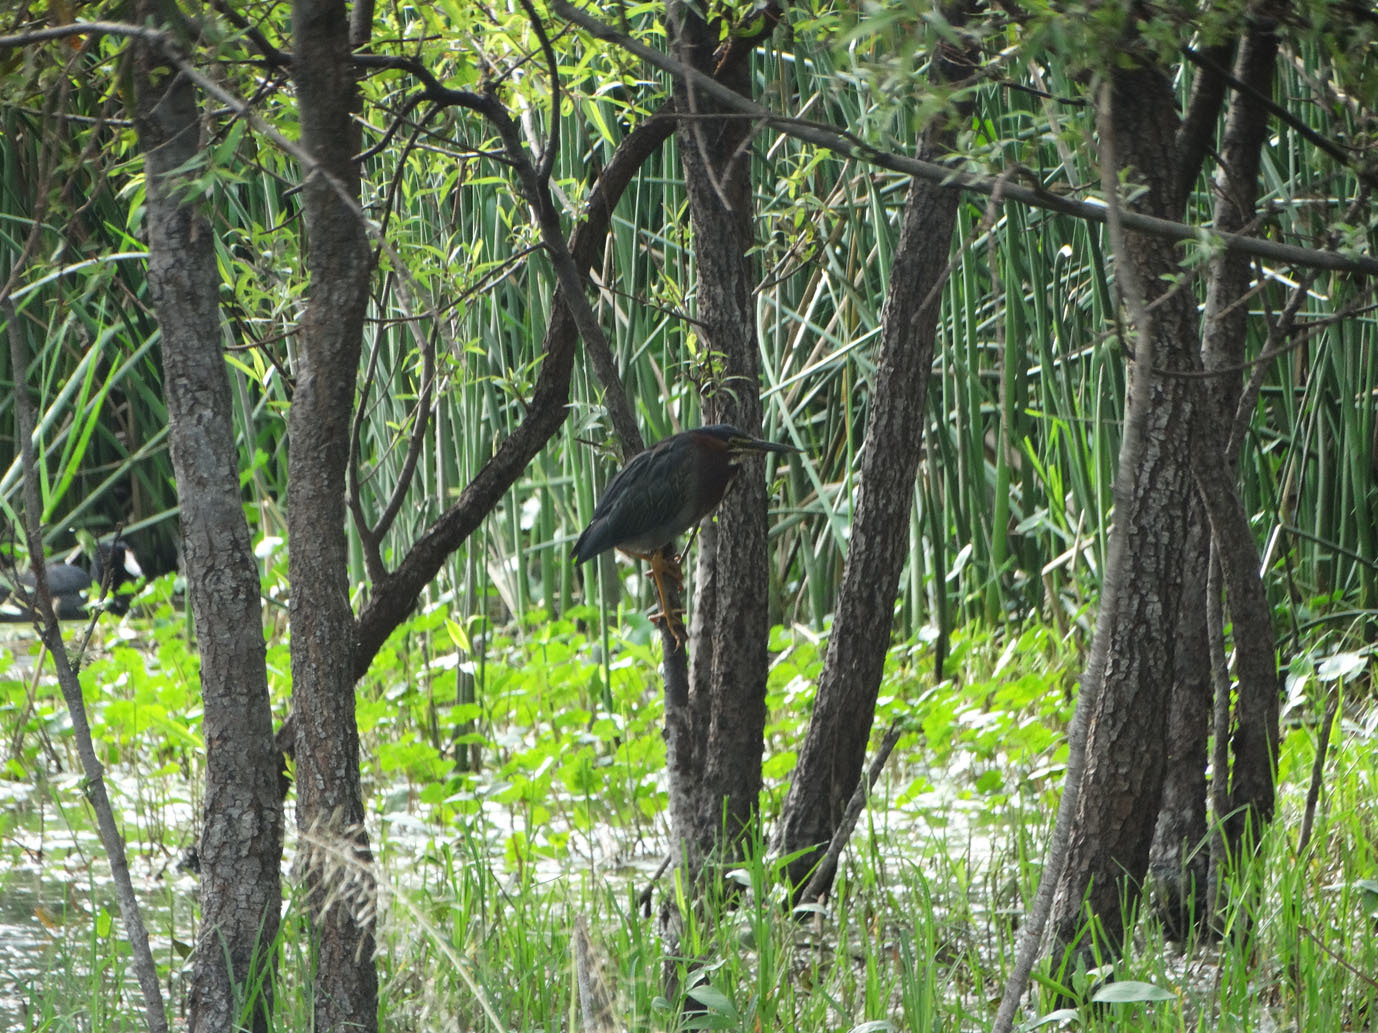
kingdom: Animalia
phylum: Chordata
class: Aves
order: Pelecaniformes
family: Ardeidae
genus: Butorides
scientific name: Butorides virescens
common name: Green heron
